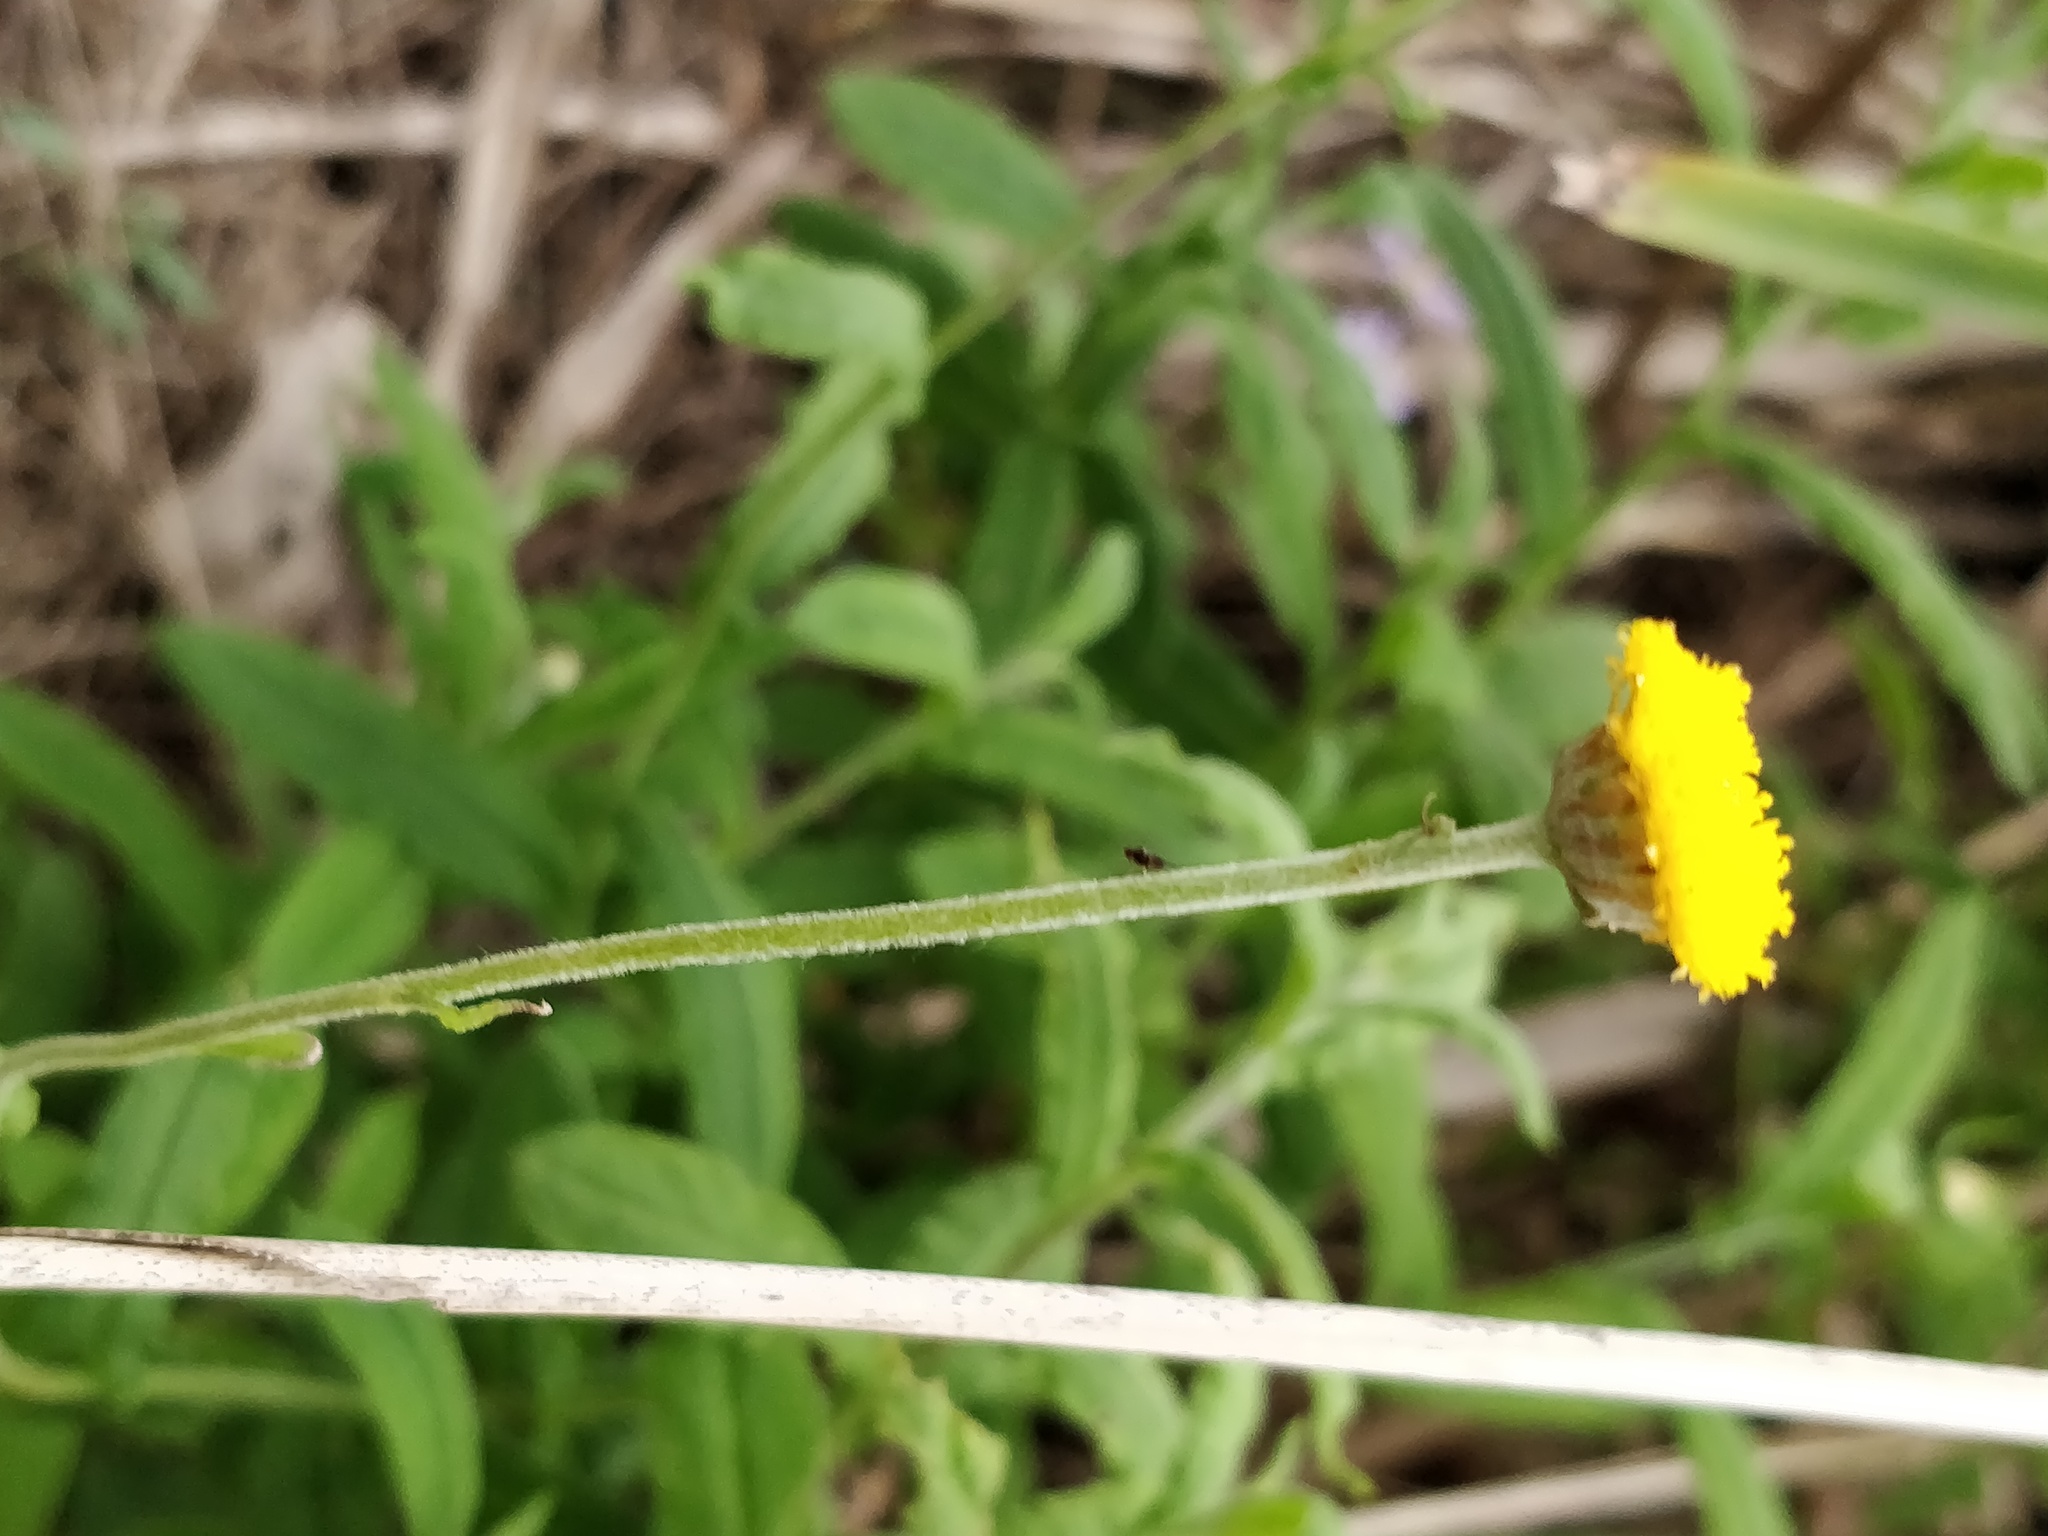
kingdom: Plantae
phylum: Tracheophyta
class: Magnoliopsida
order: Asterales
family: Asteraceae
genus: Coronidium
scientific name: Coronidium rutidolepis
